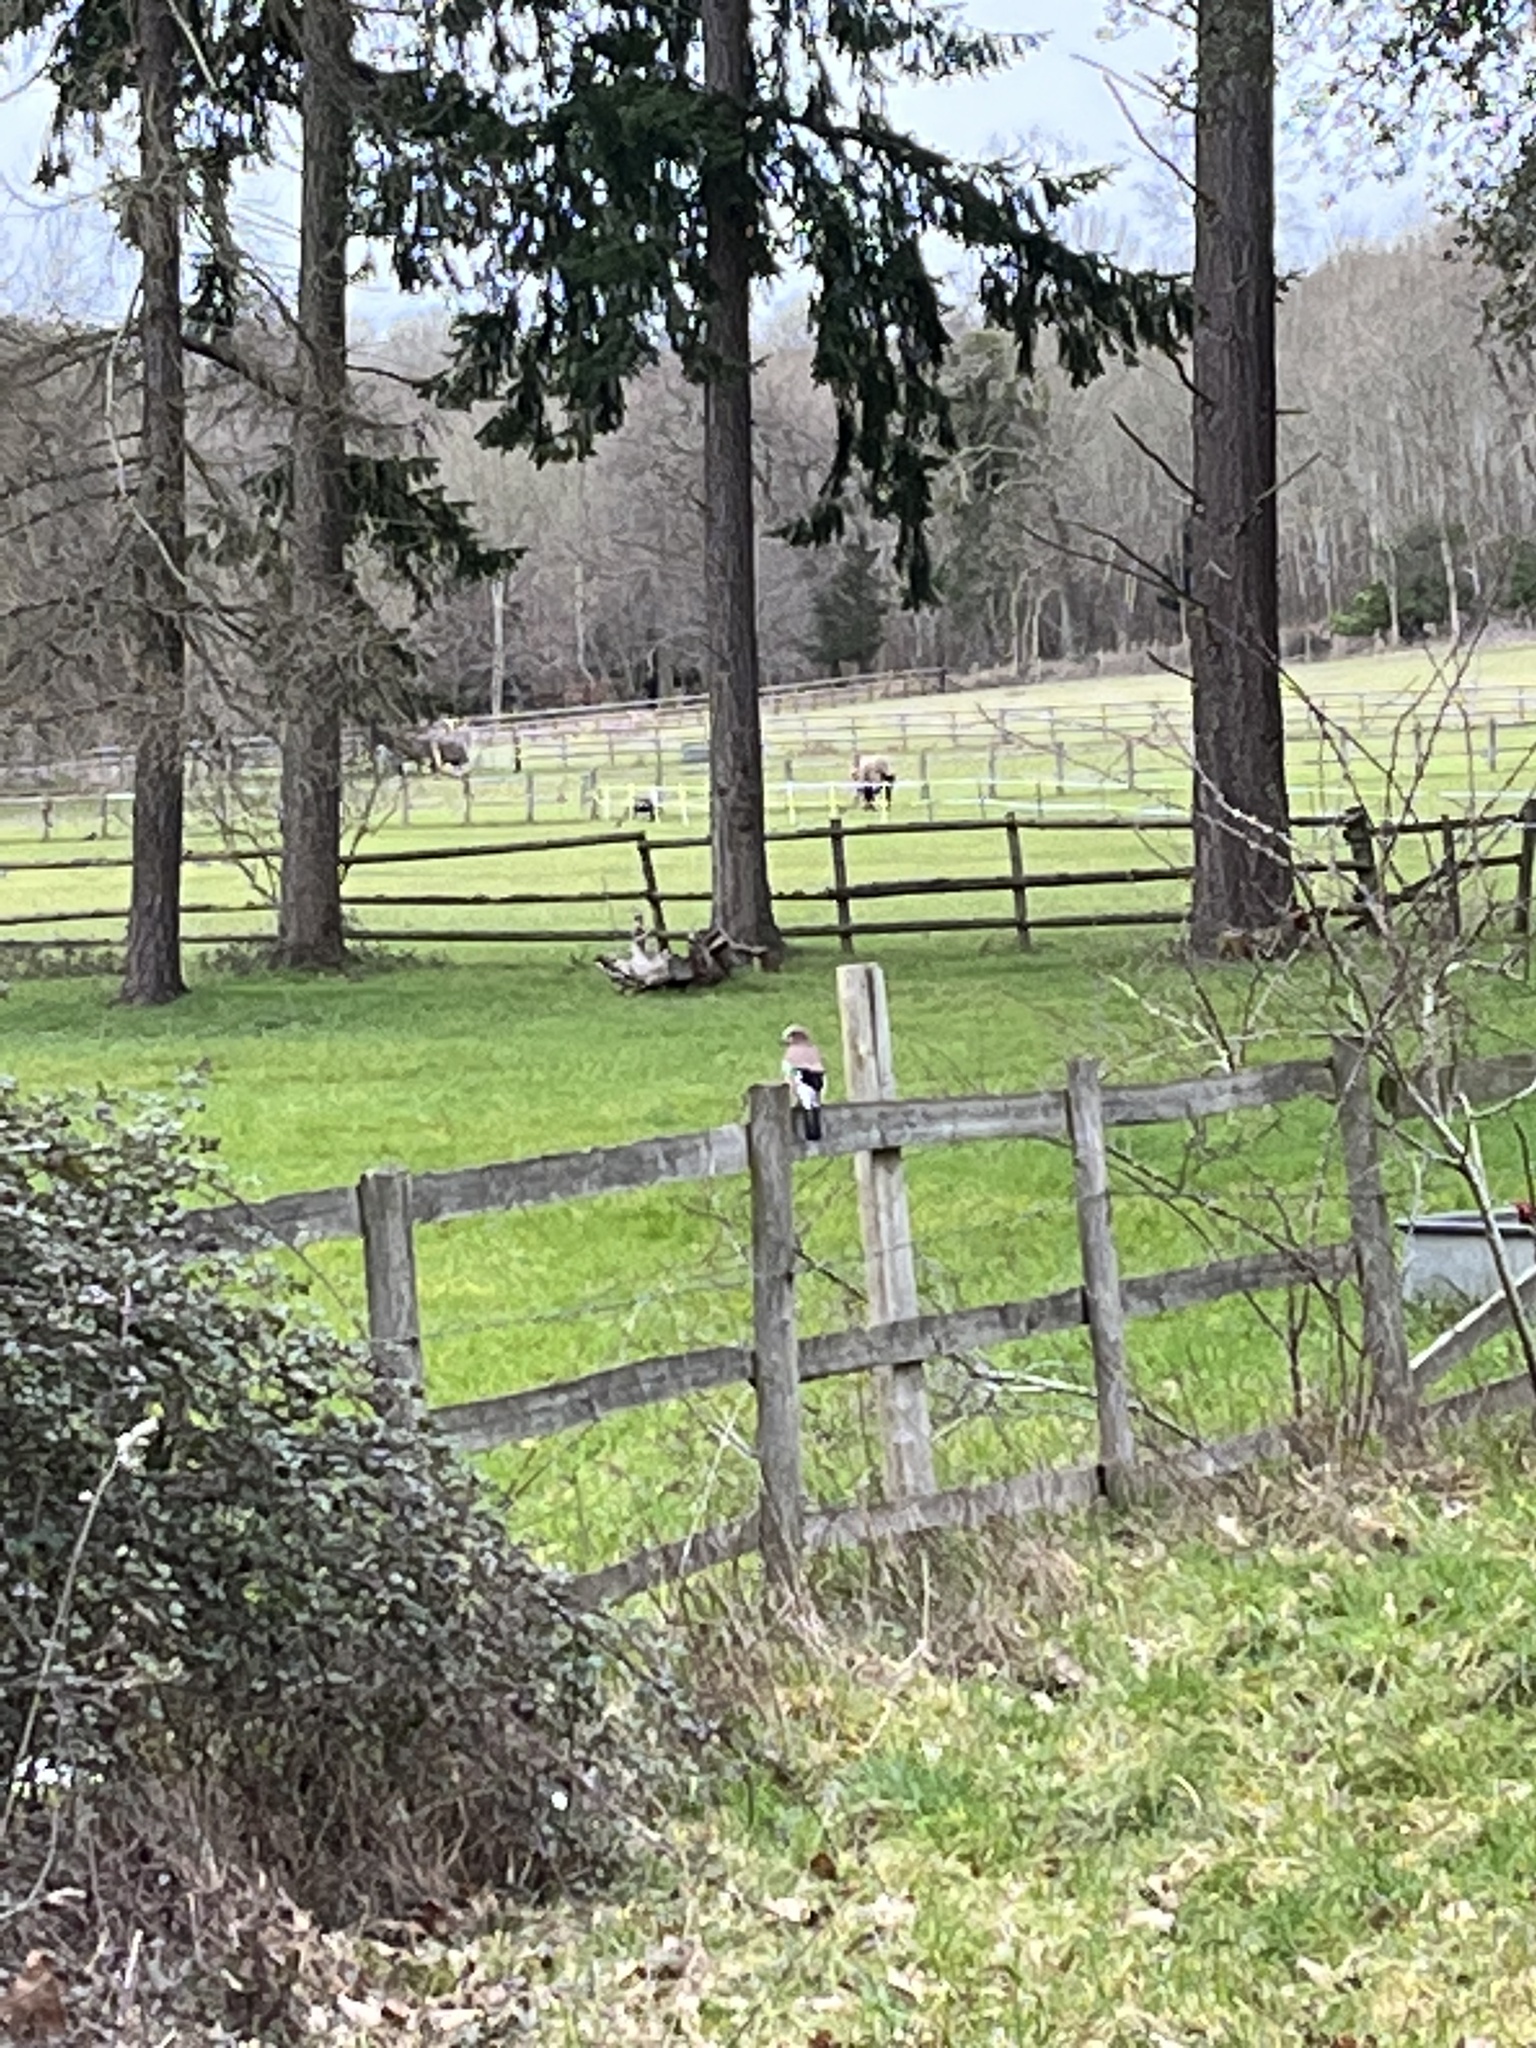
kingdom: Animalia
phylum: Chordata
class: Aves
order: Passeriformes
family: Corvidae
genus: Garrulus
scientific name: Garrulus glandarius
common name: Eurasian jay
